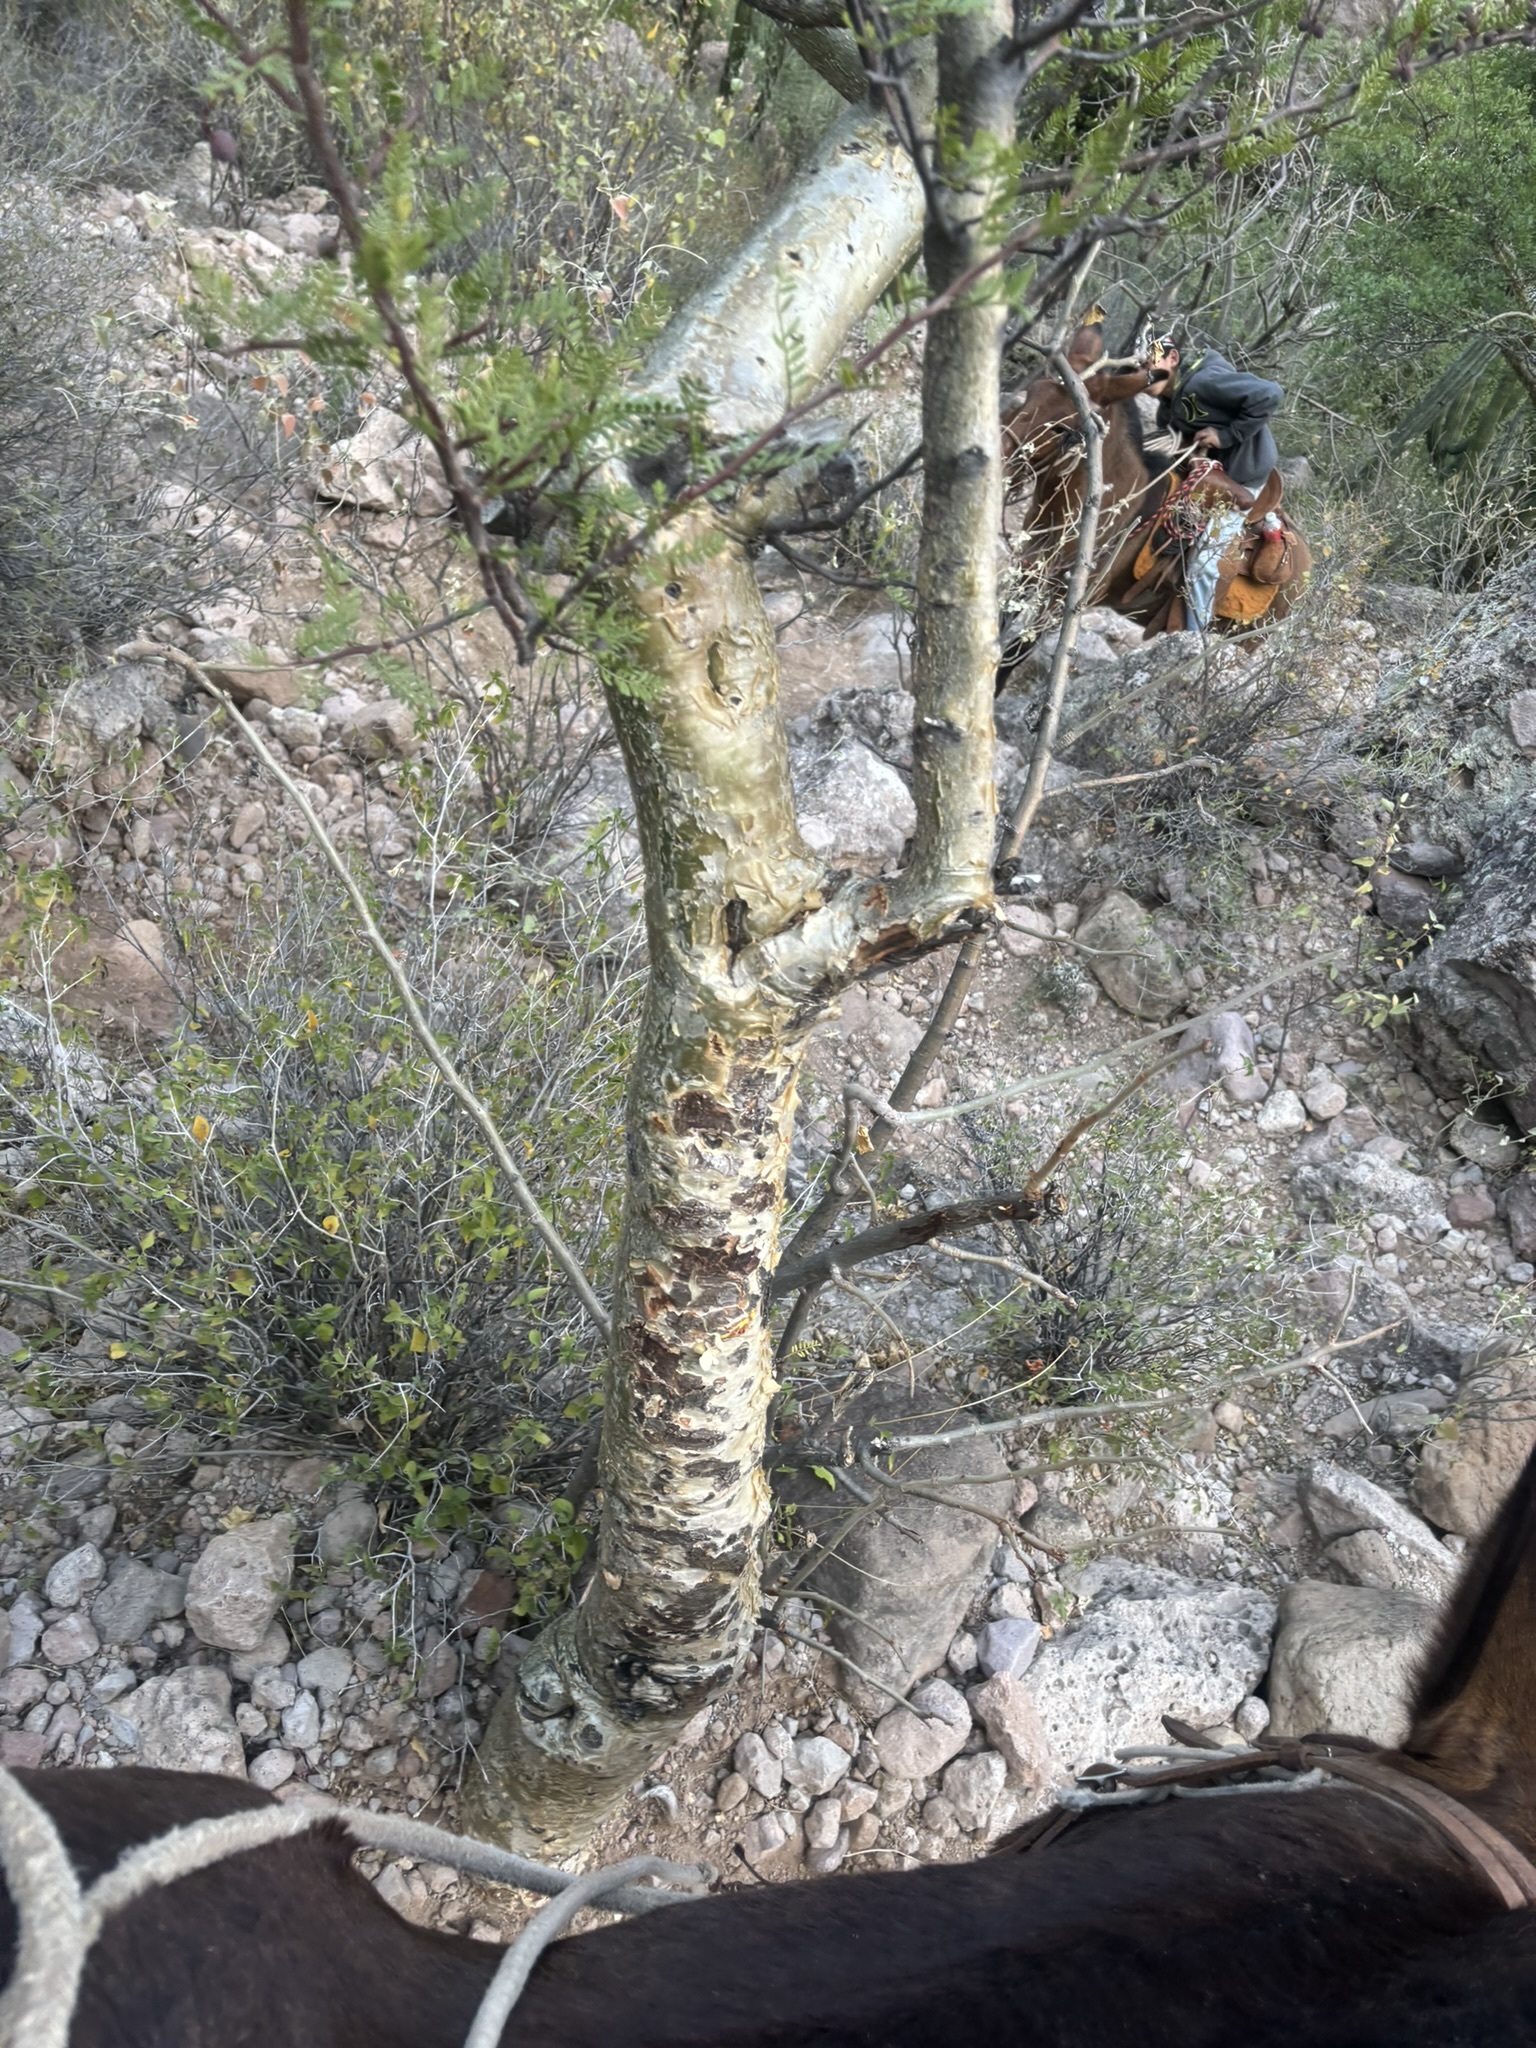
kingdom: Plantae
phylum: Tracheophyta
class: Magnoliopsida
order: Sapindales
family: Burseraceae
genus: Bursera
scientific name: Bursera microphylla
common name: Elephant tree
